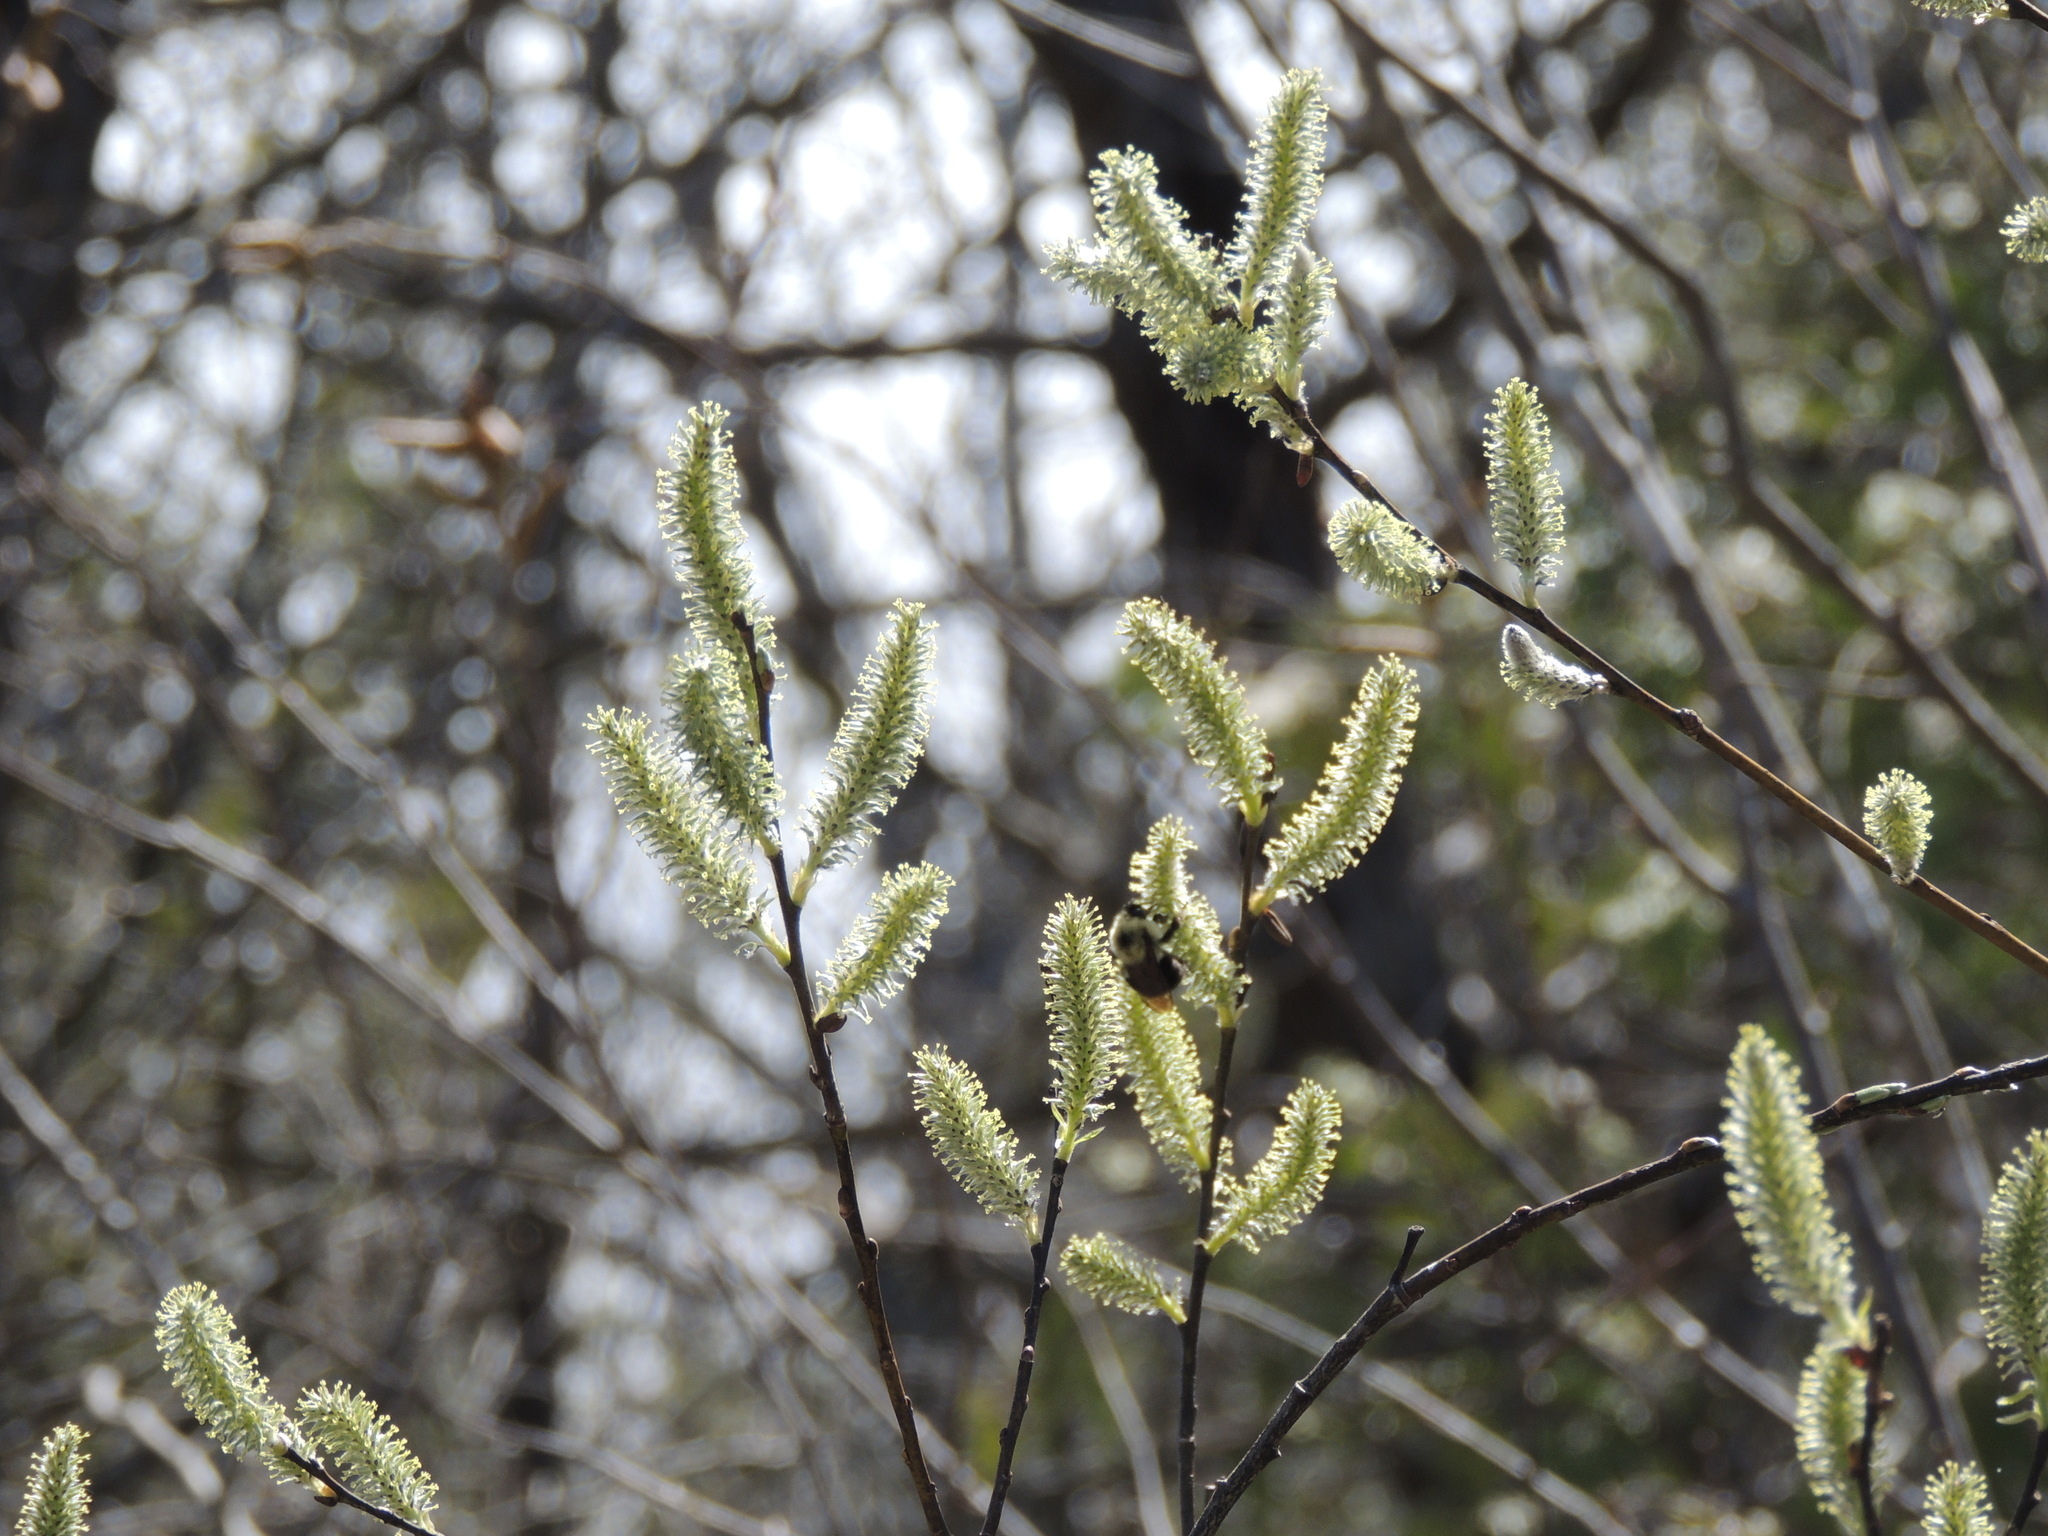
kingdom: Animalia
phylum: Arthropoda
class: Insecta
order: Hymenoptera
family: Apidae
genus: Bombus
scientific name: Bombus bimaculatus
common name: Two-spotted bumble bee
